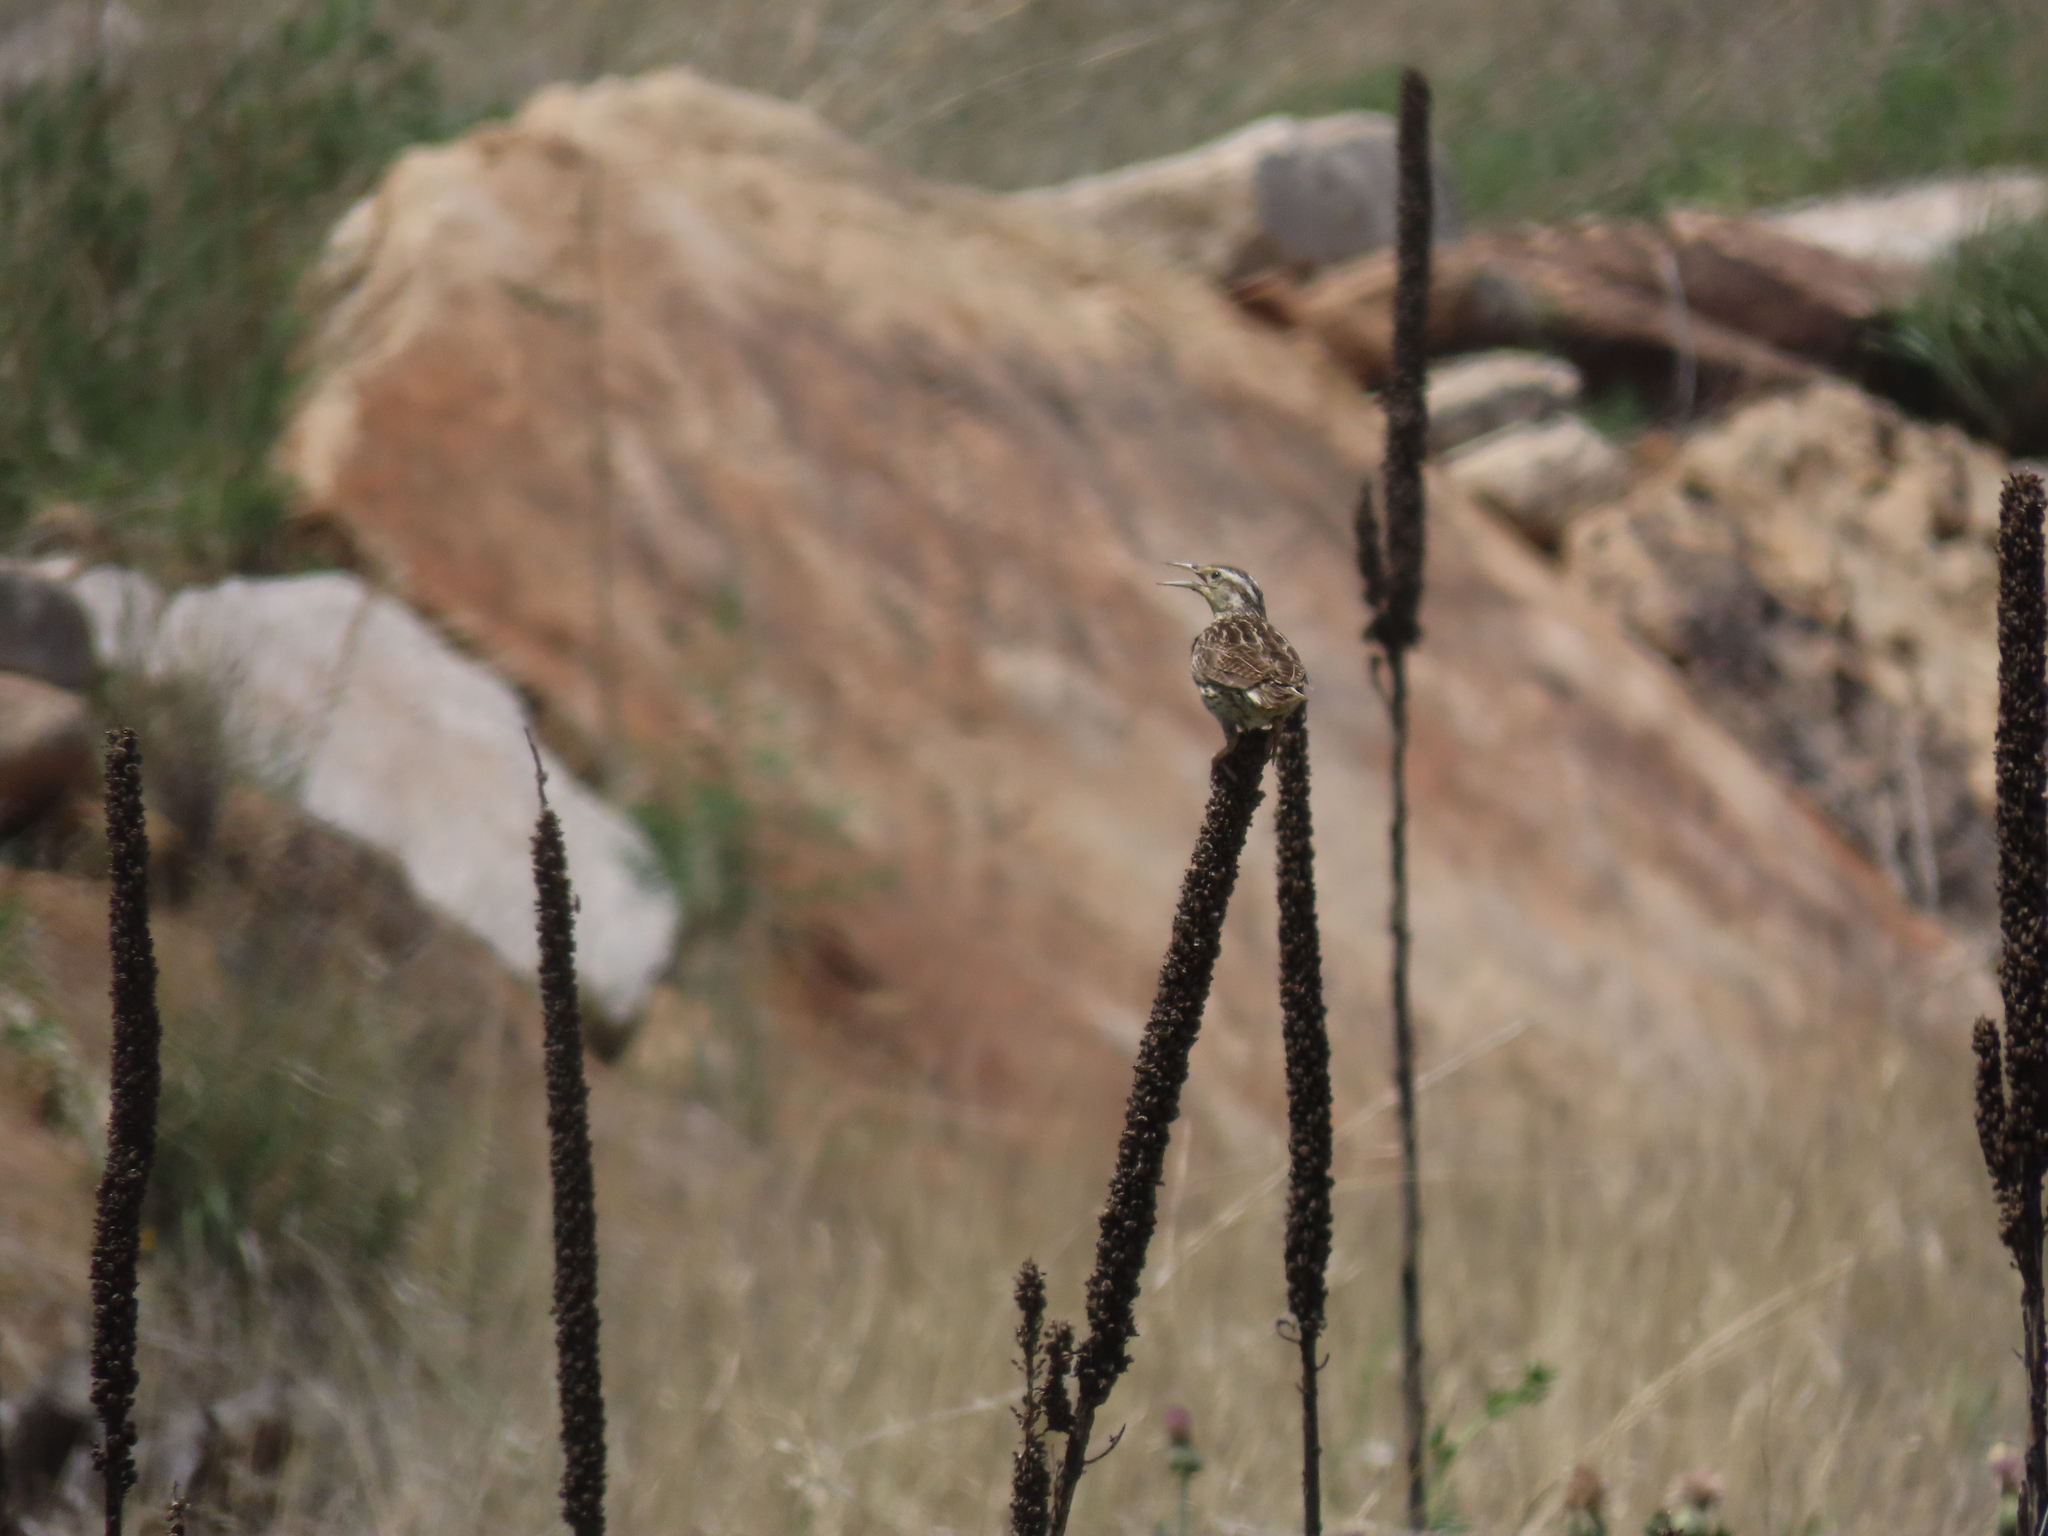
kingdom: Animalia
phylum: Chordata
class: Aves
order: Passeriformes
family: Icteridae
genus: Sturnella
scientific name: Sturnella neglecta
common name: Western meadowlark
